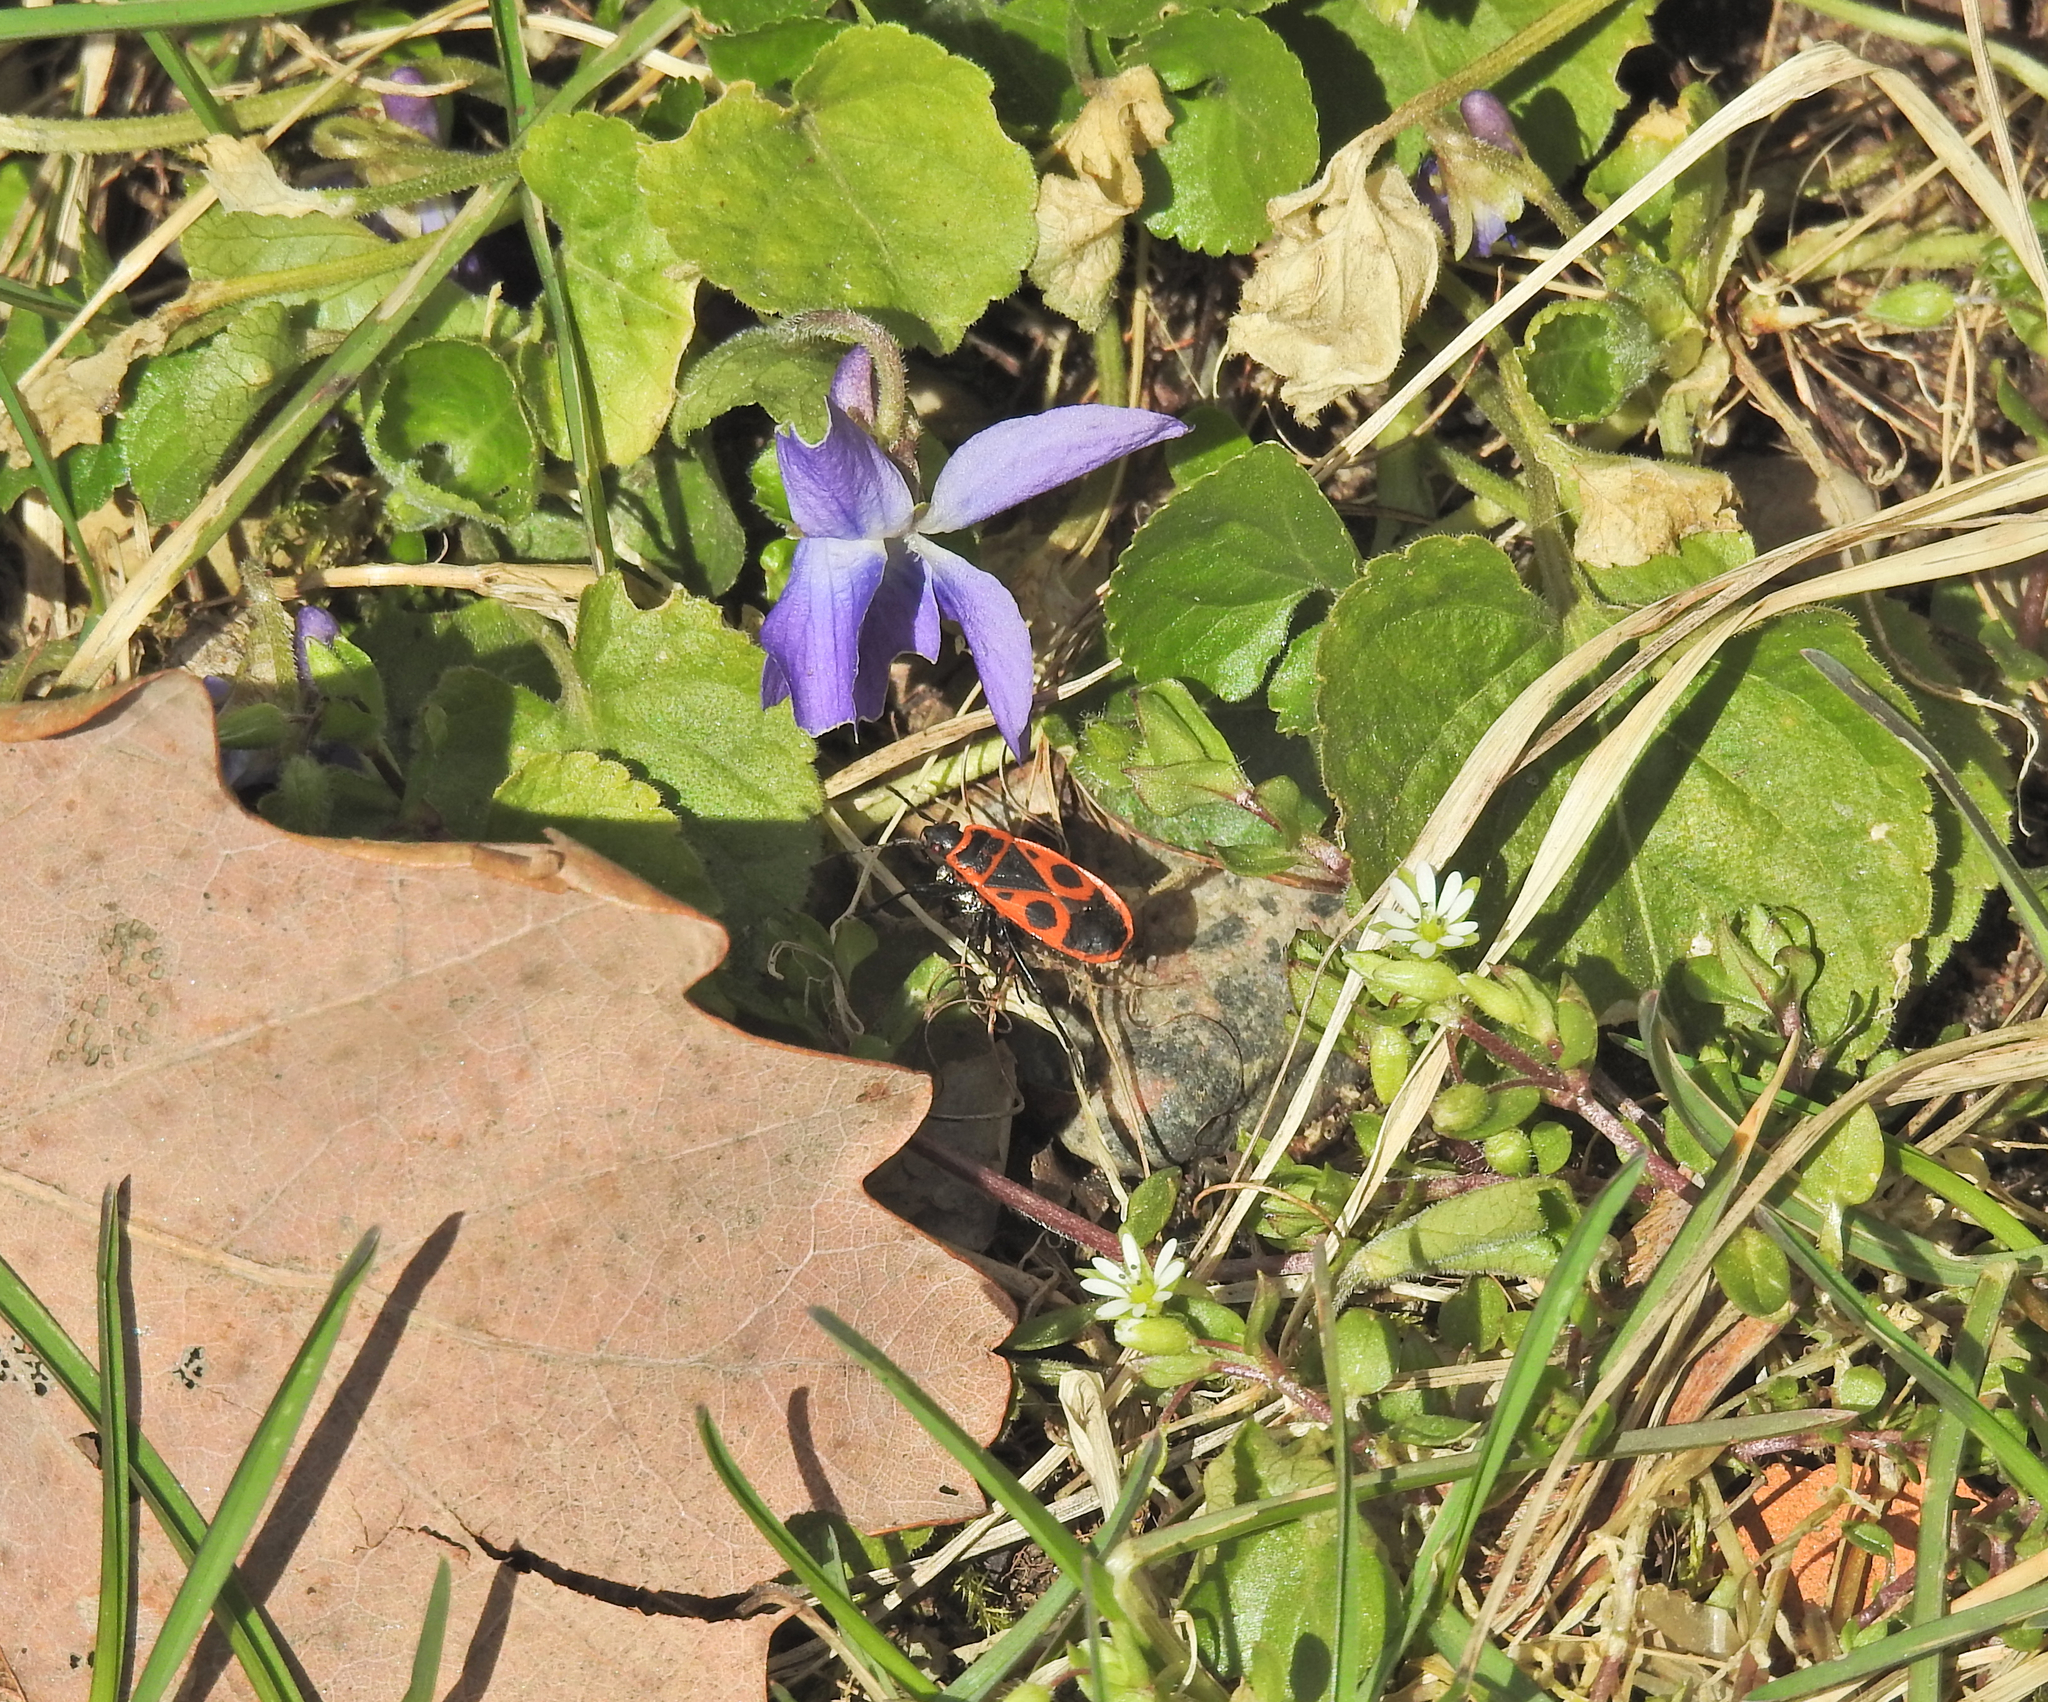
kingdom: Animalia
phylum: Arthropoda
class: Insecta
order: Hemiptera
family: Pyrrhocoridae
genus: Pyrrhocoris
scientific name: Pyrrhocoris apterus
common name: Firebug
